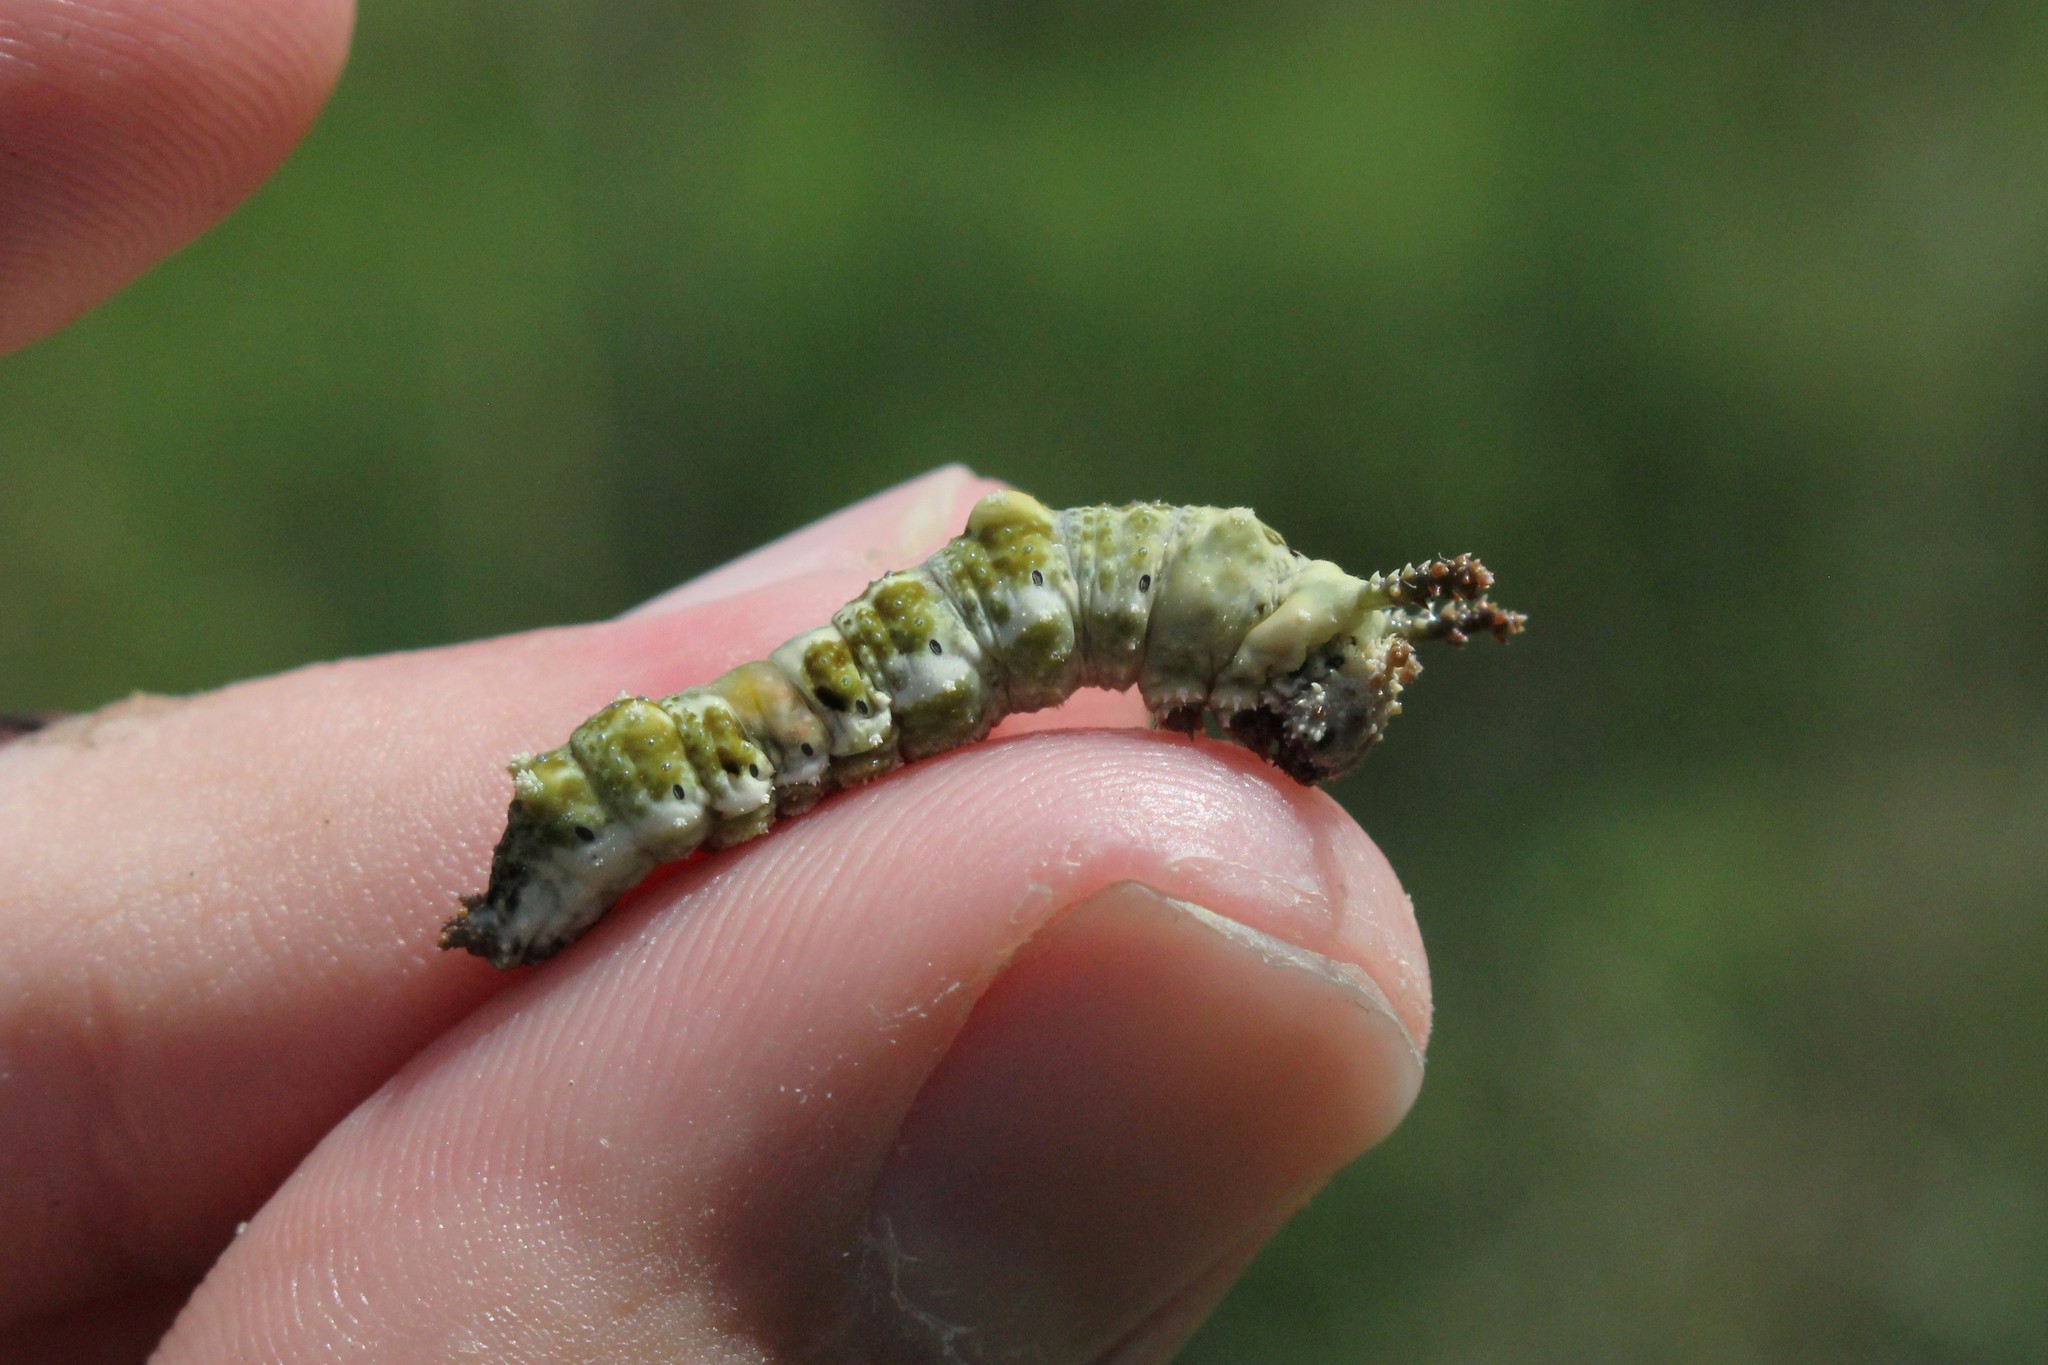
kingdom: Animalia
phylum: Arthropoda
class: Insecta
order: Lepidoptera
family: Nymphalidae
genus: Limenitis
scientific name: Limenitis
